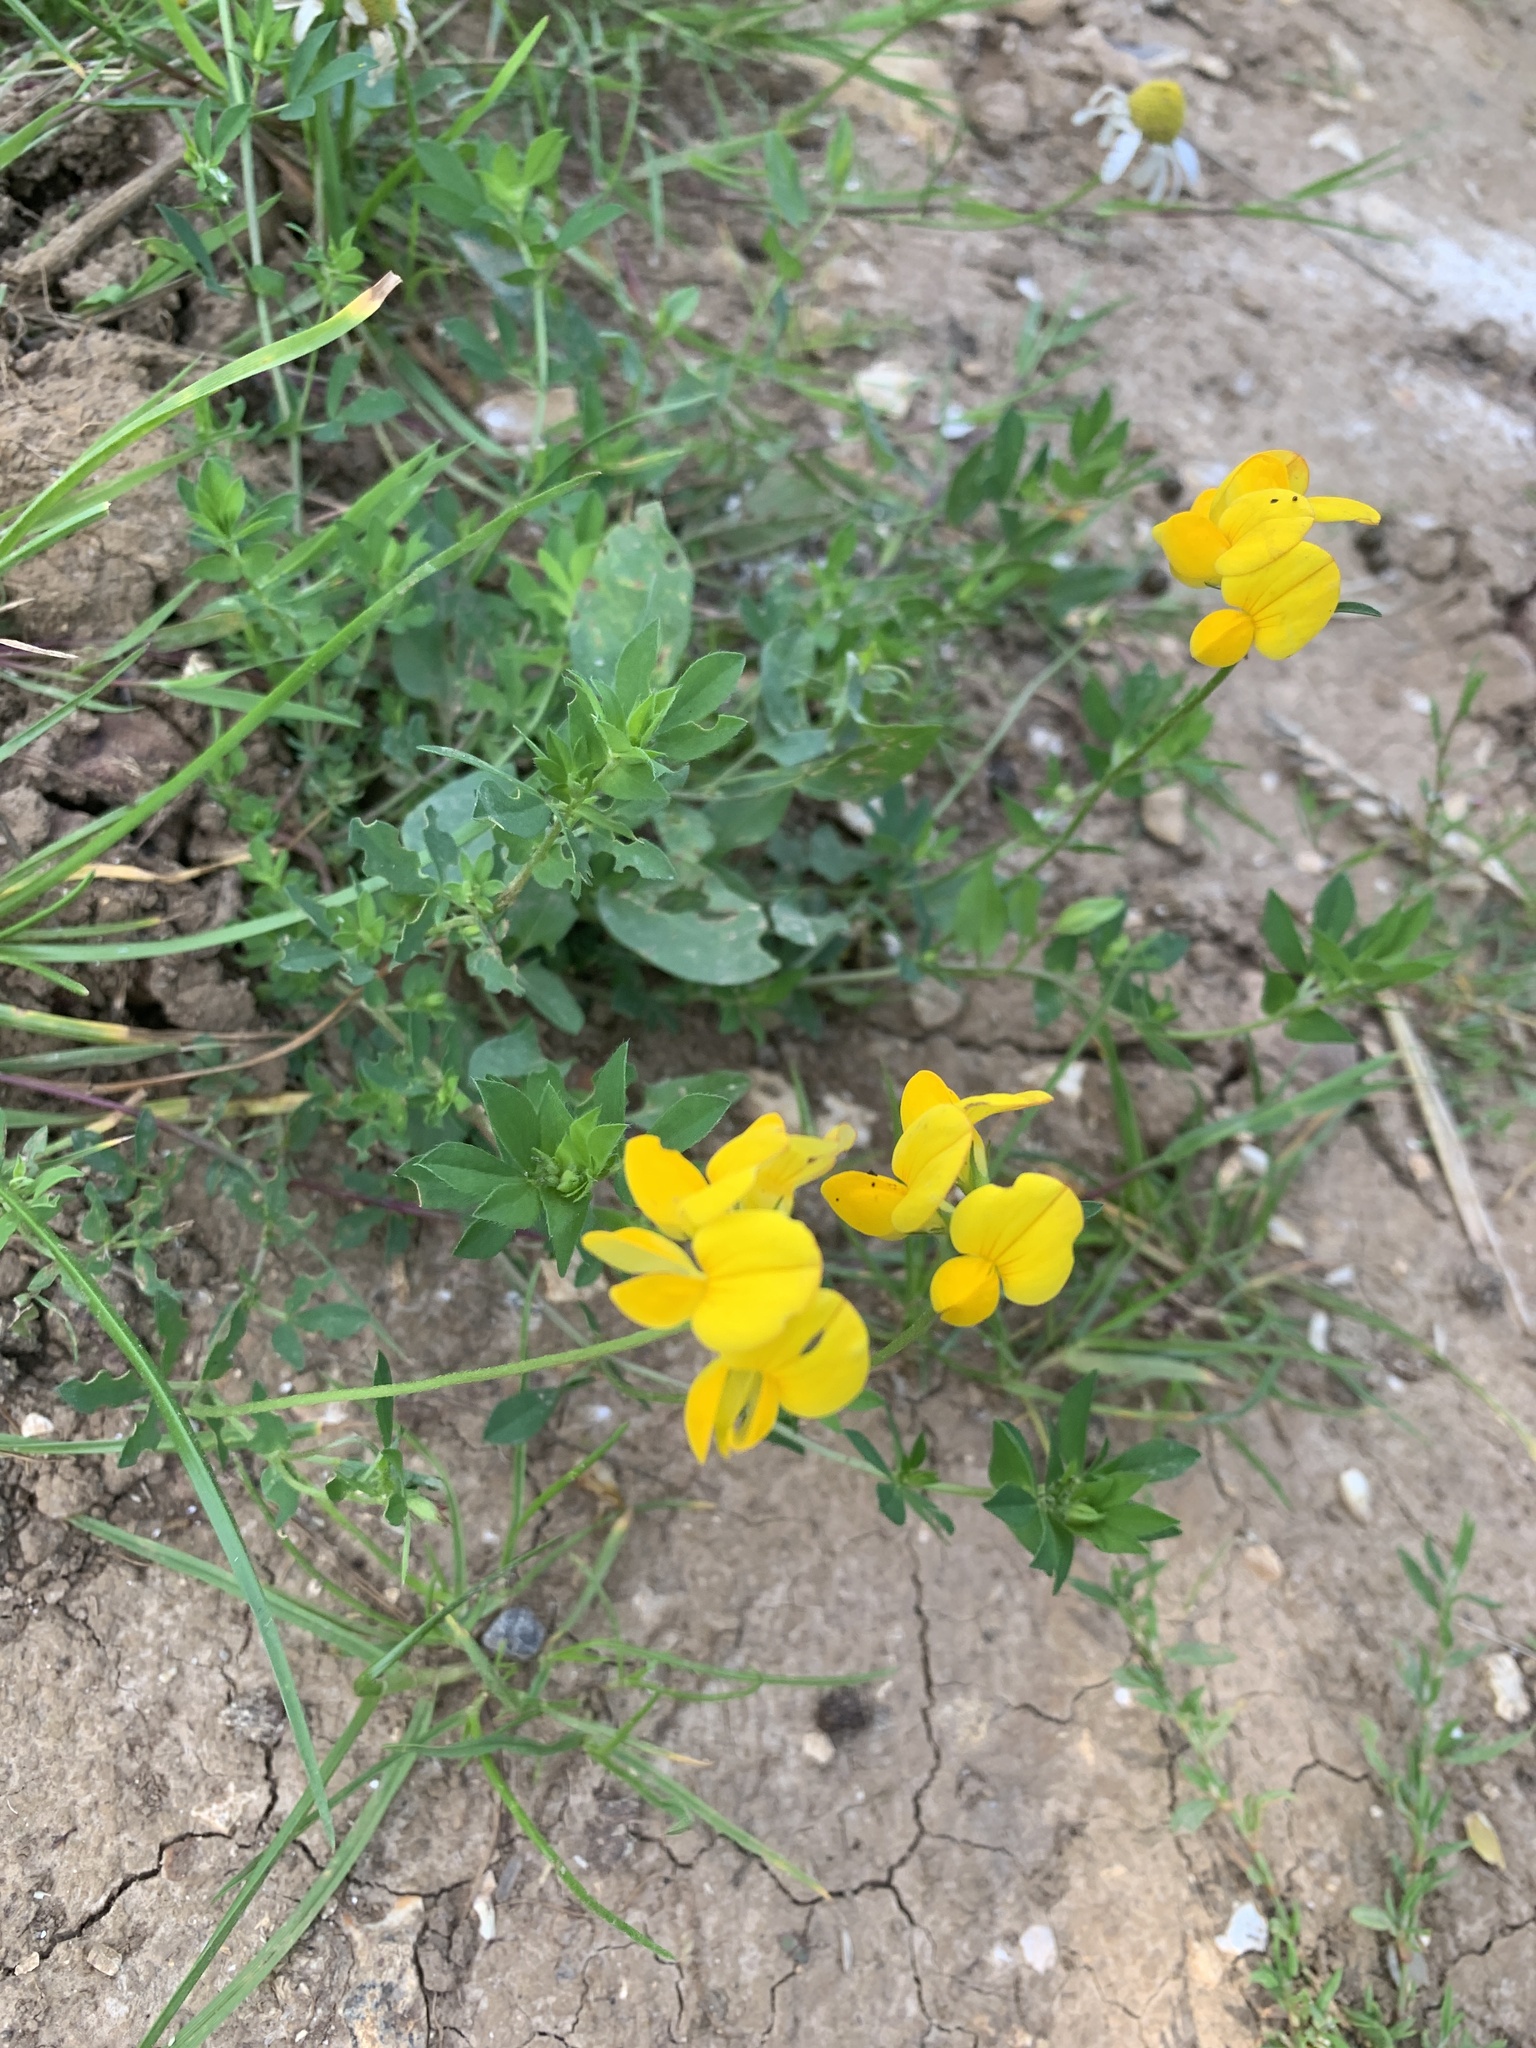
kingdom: Plantae
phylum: Tracheophyta
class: Magnoliopsida
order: Fabales
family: Fabaceae
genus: Lotus
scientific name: Lotus corniculatus
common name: Common bird's-foot-trefoil
